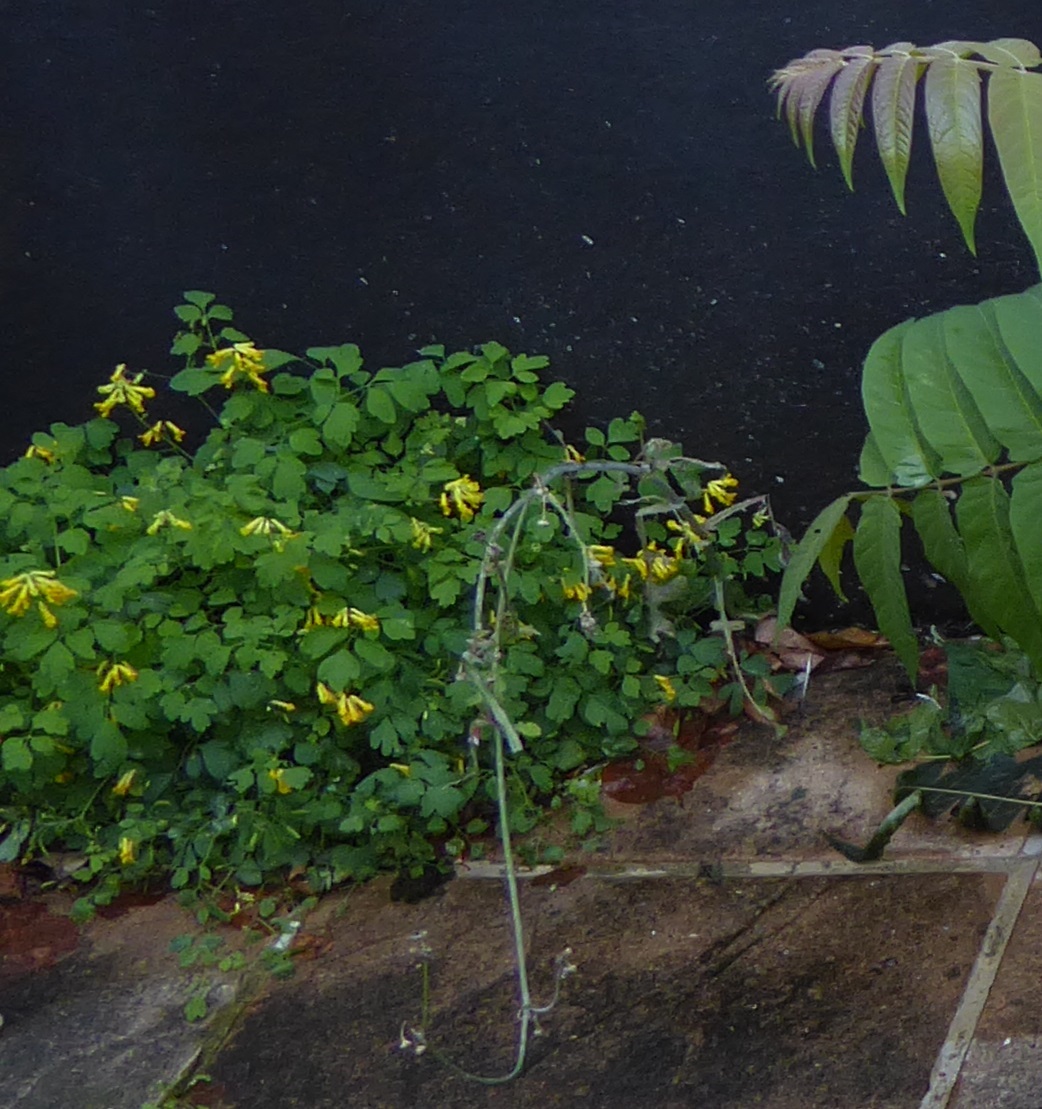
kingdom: Plantae
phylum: Tracheophyta
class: Magnoliopsida
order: Ranunculales
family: Papaveraceae
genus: Pseudofumaria
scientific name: Pseudofumaria lutea
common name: Yellow corydalis
